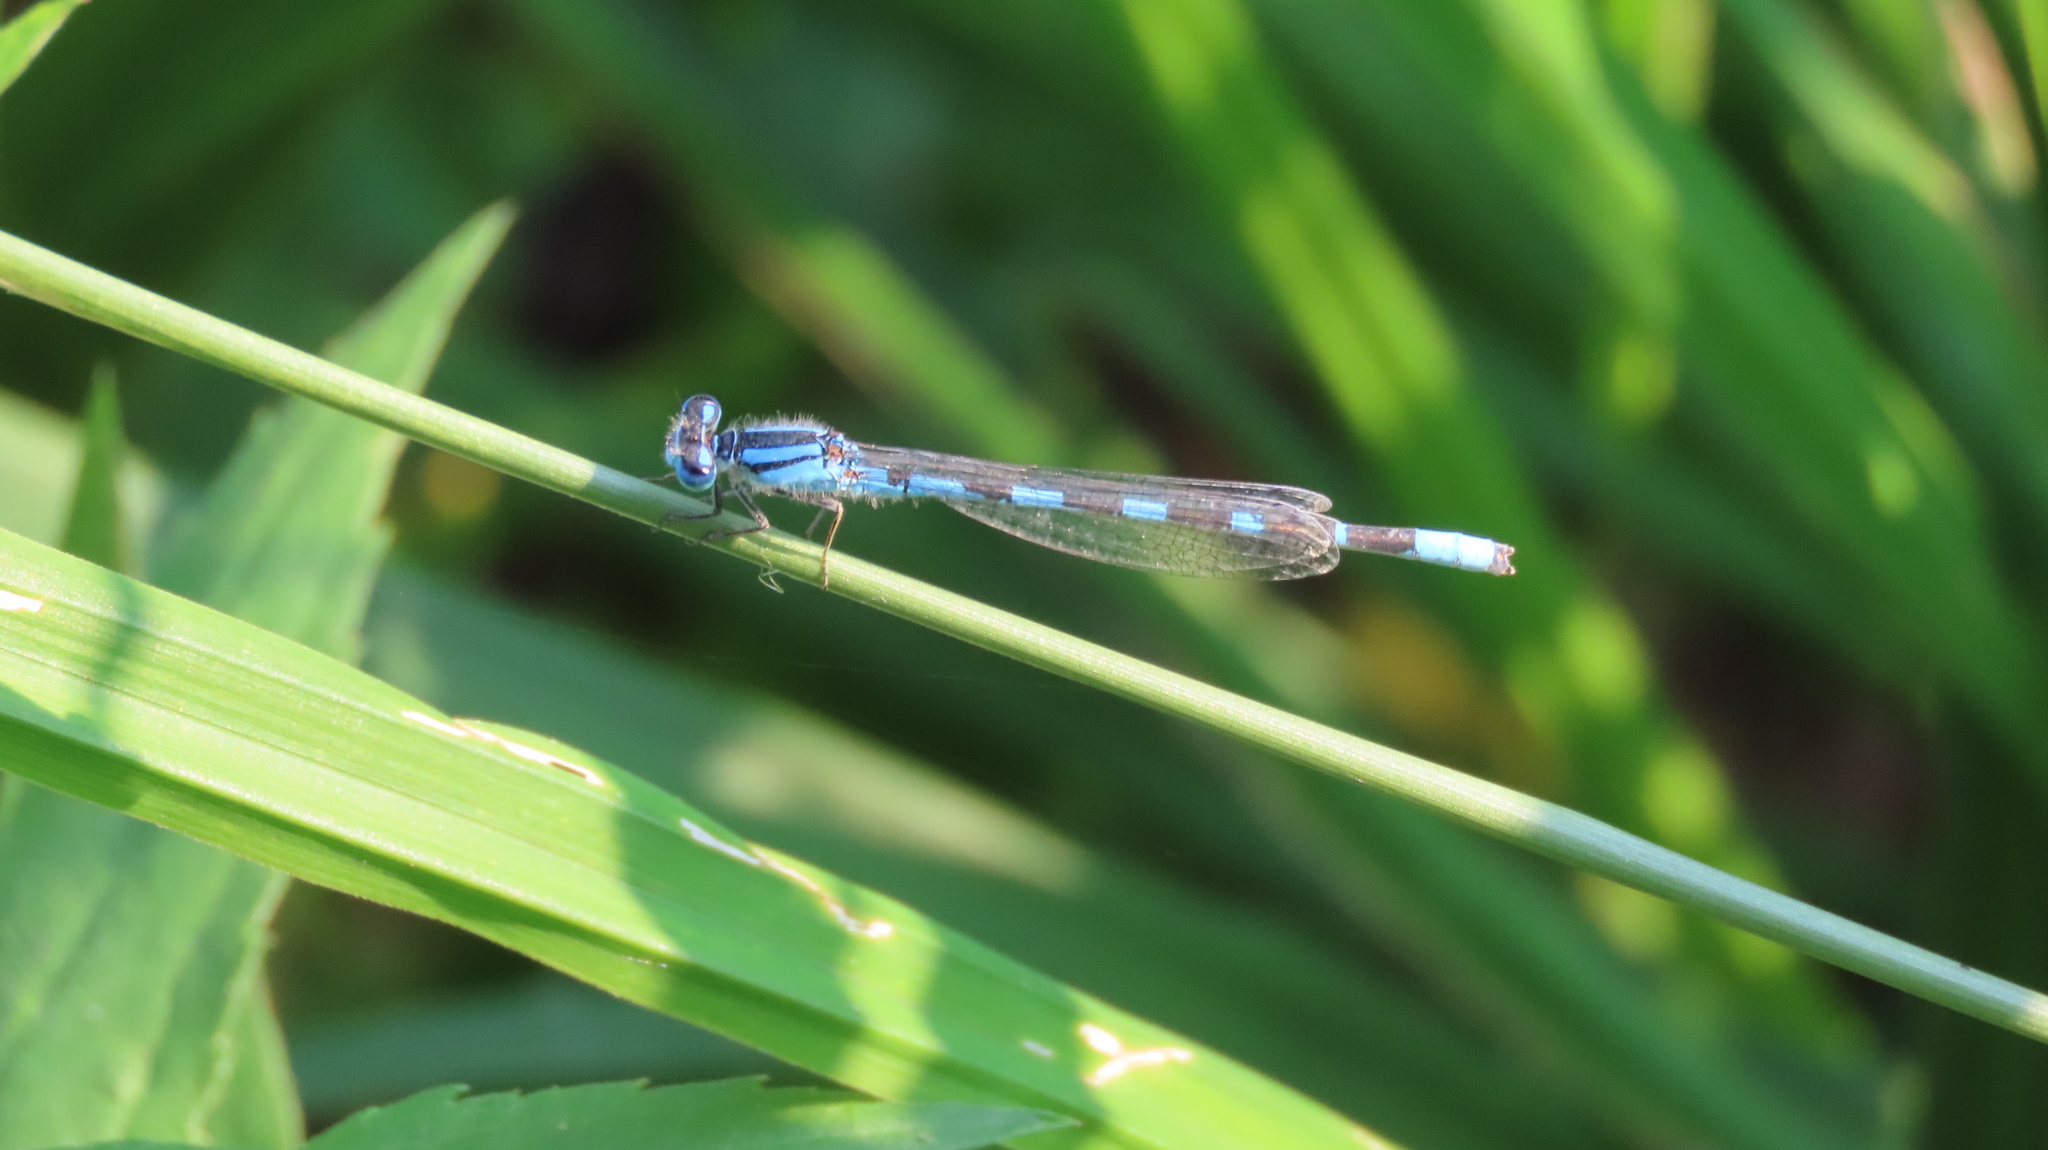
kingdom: Animalia
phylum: Arthropoda
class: Insecta
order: Odonata
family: Coenagrionidae
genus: Enallagma
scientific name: Enallagma carunculatum
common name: Tule bluet
